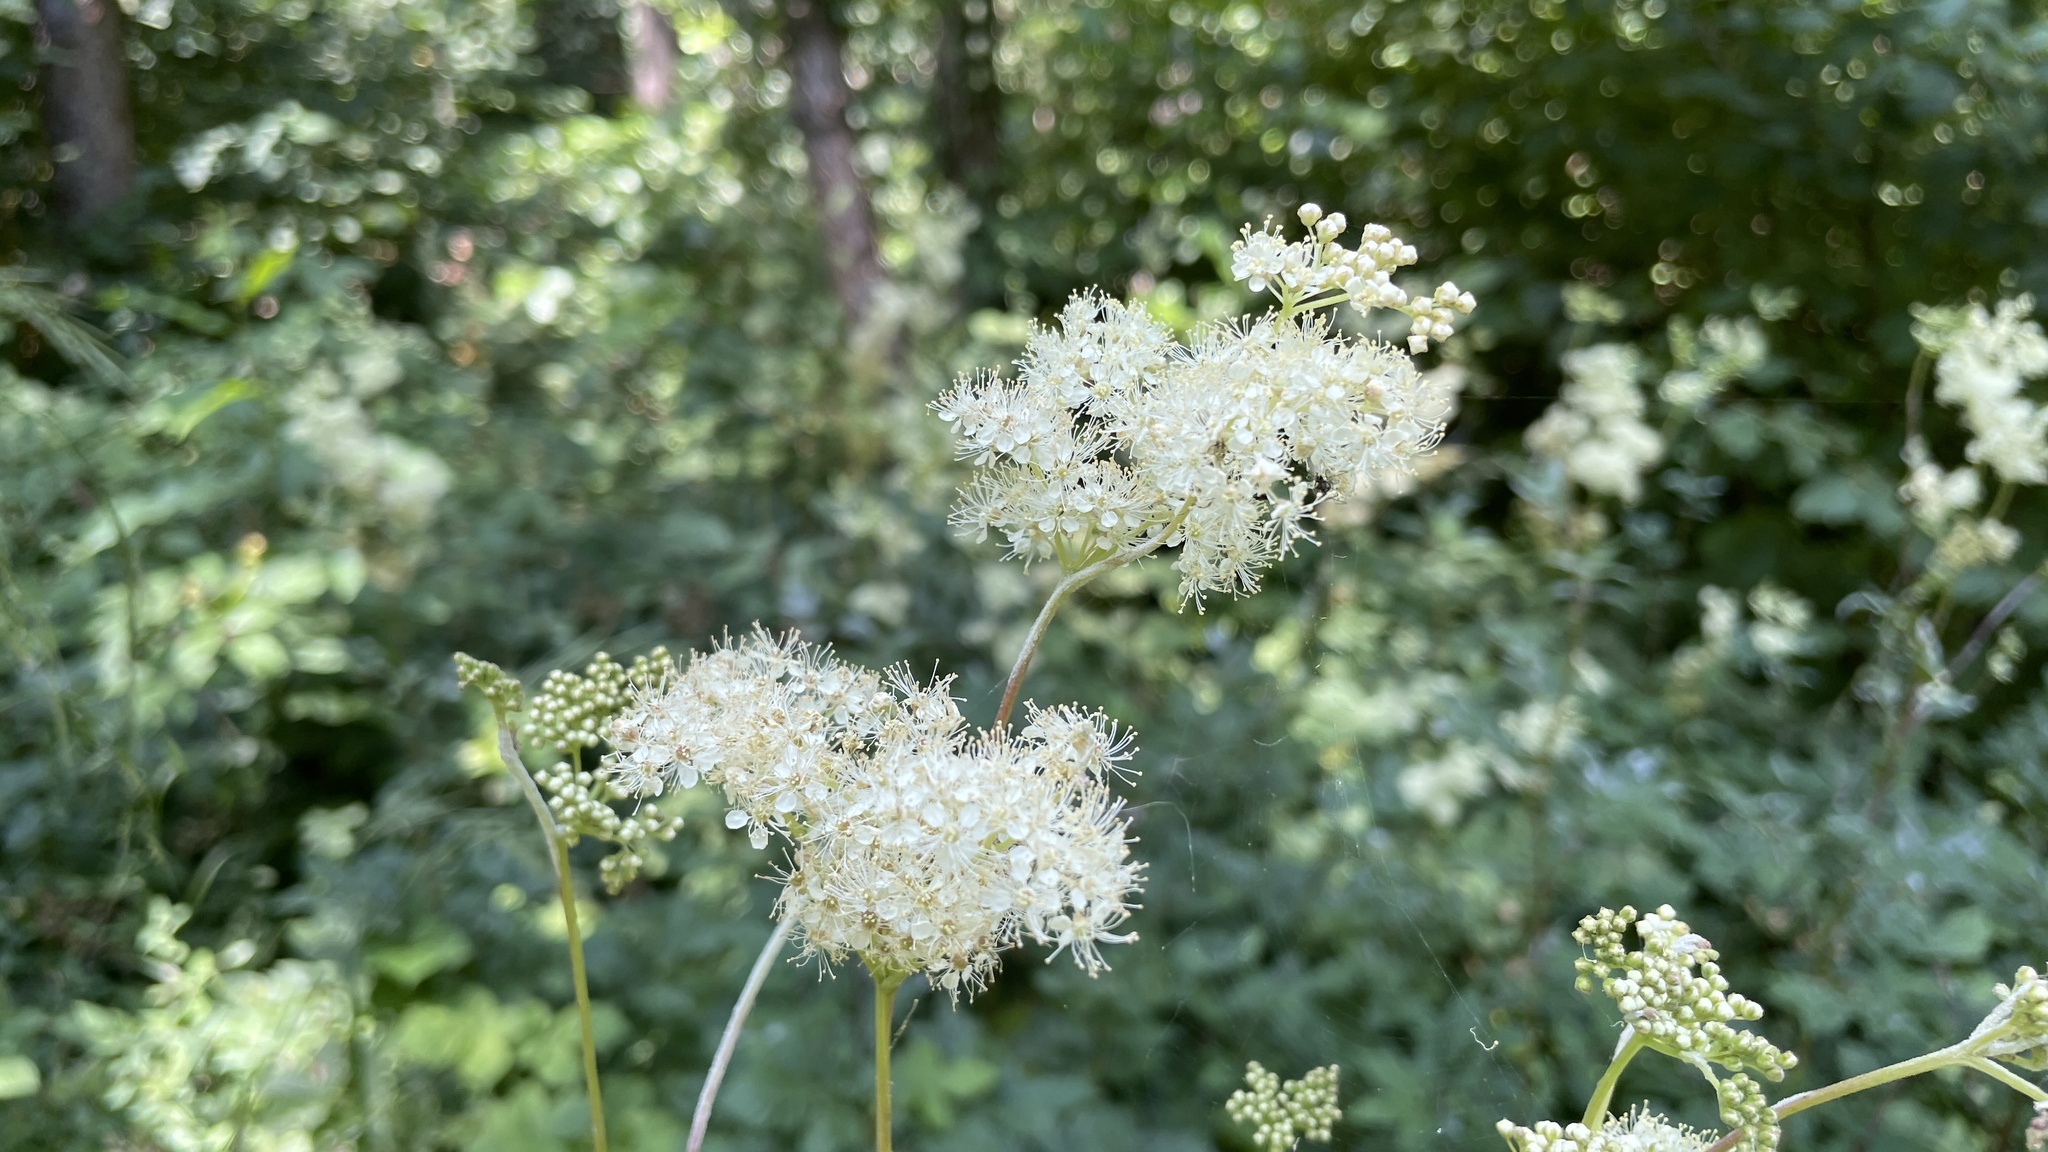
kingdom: Plantae
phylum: Tracheophyta
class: Magnoliopsida
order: Rosales
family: Rosaceae
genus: Filipendula
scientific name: Filipendula ulmaria
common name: Meadowsweet
